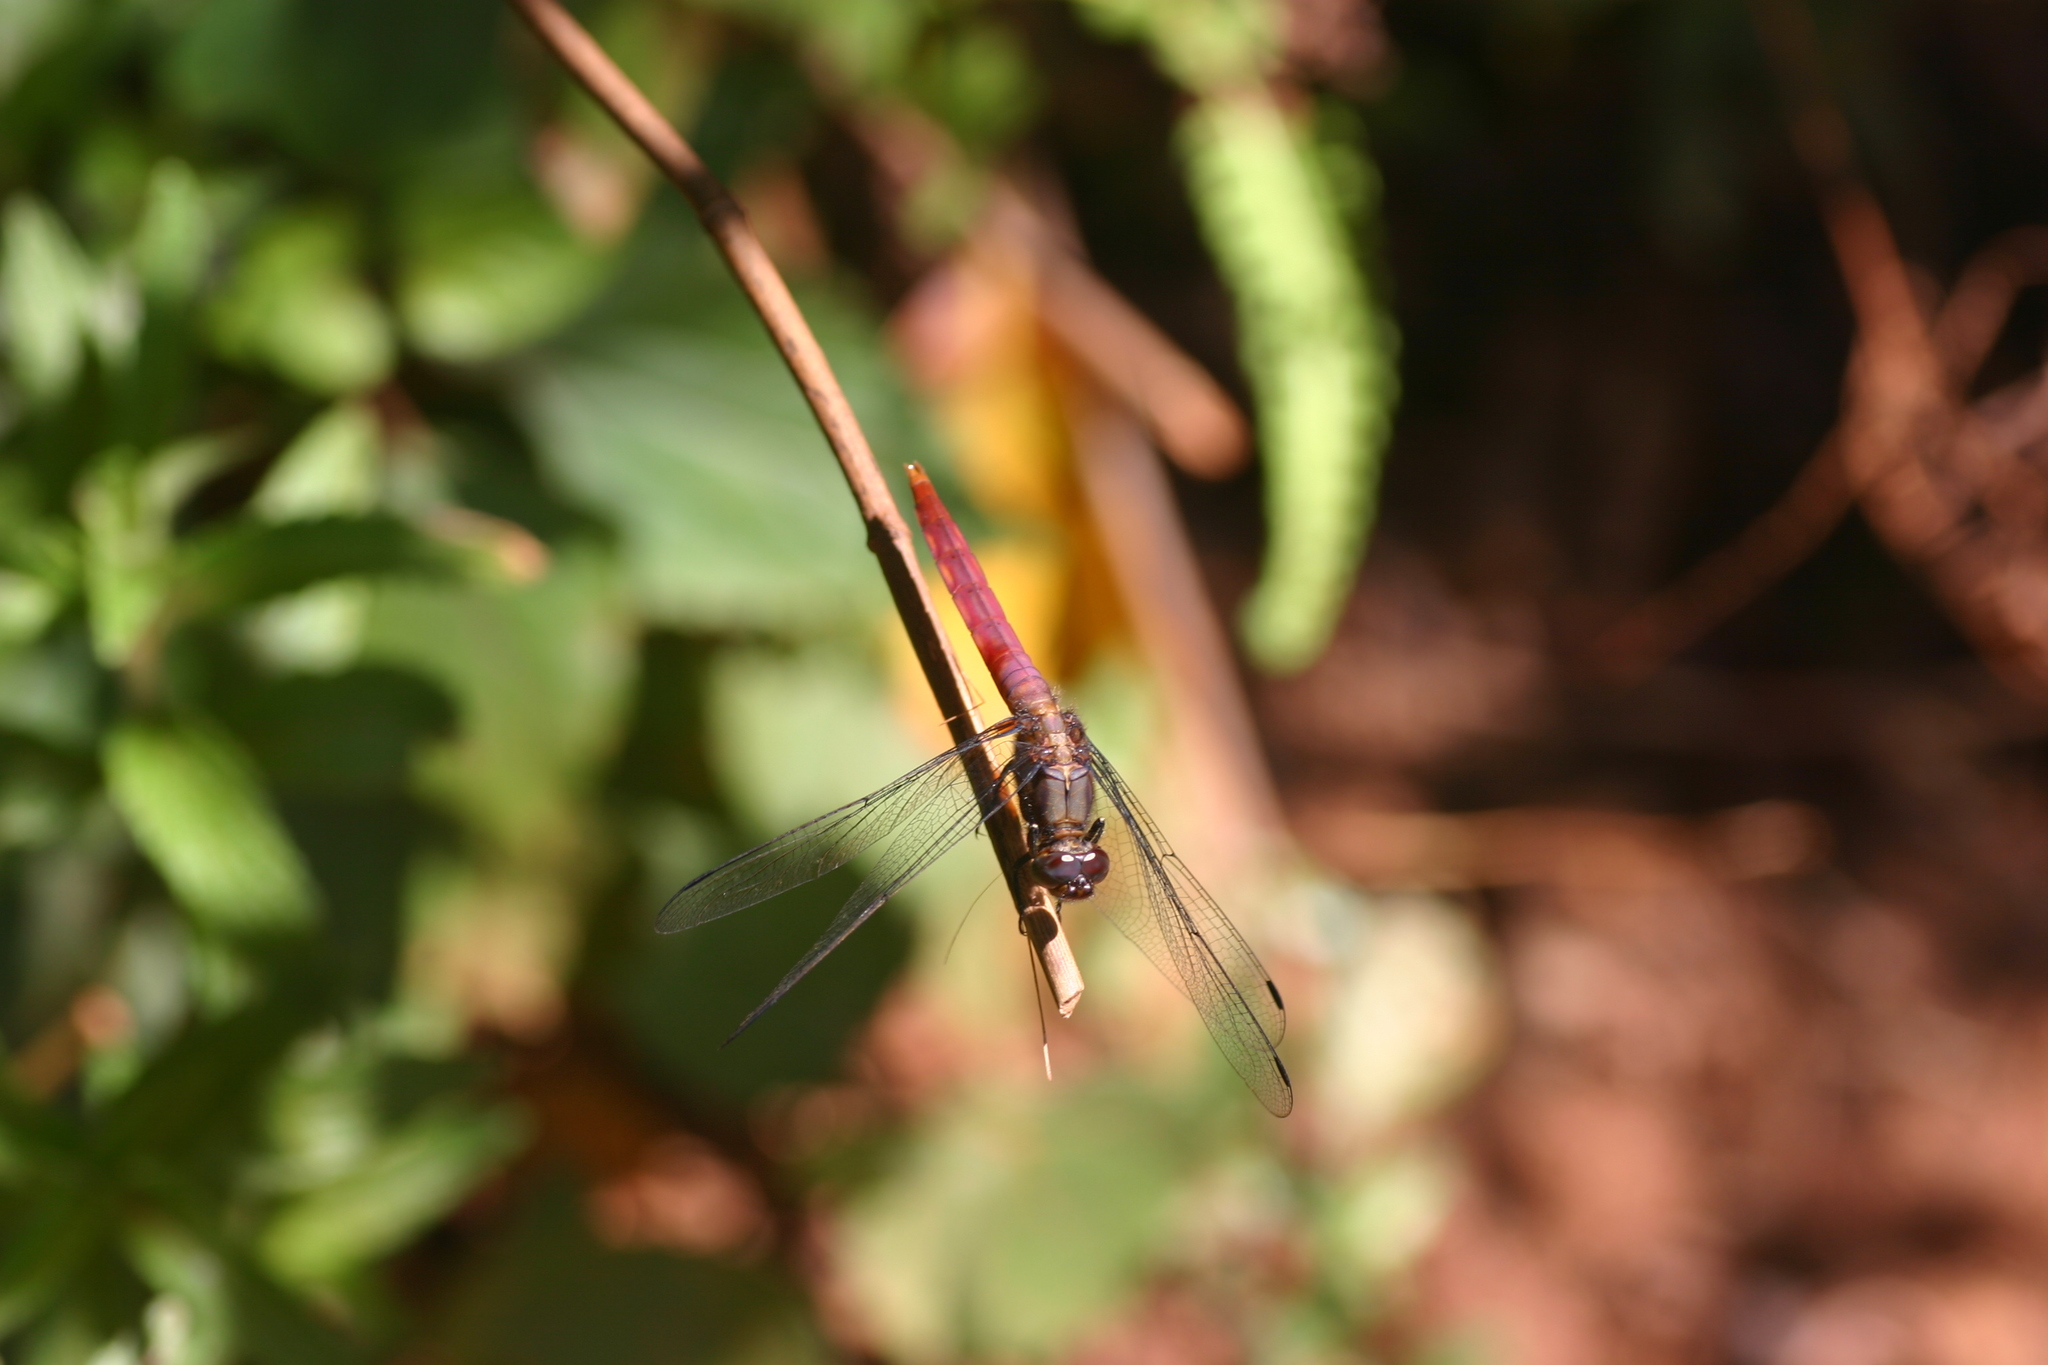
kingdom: Animalia
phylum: Arthropoda
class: Insecta
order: Odonata
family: Libellulidae
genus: Orthetrum
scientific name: Orthetrum pruinosum
